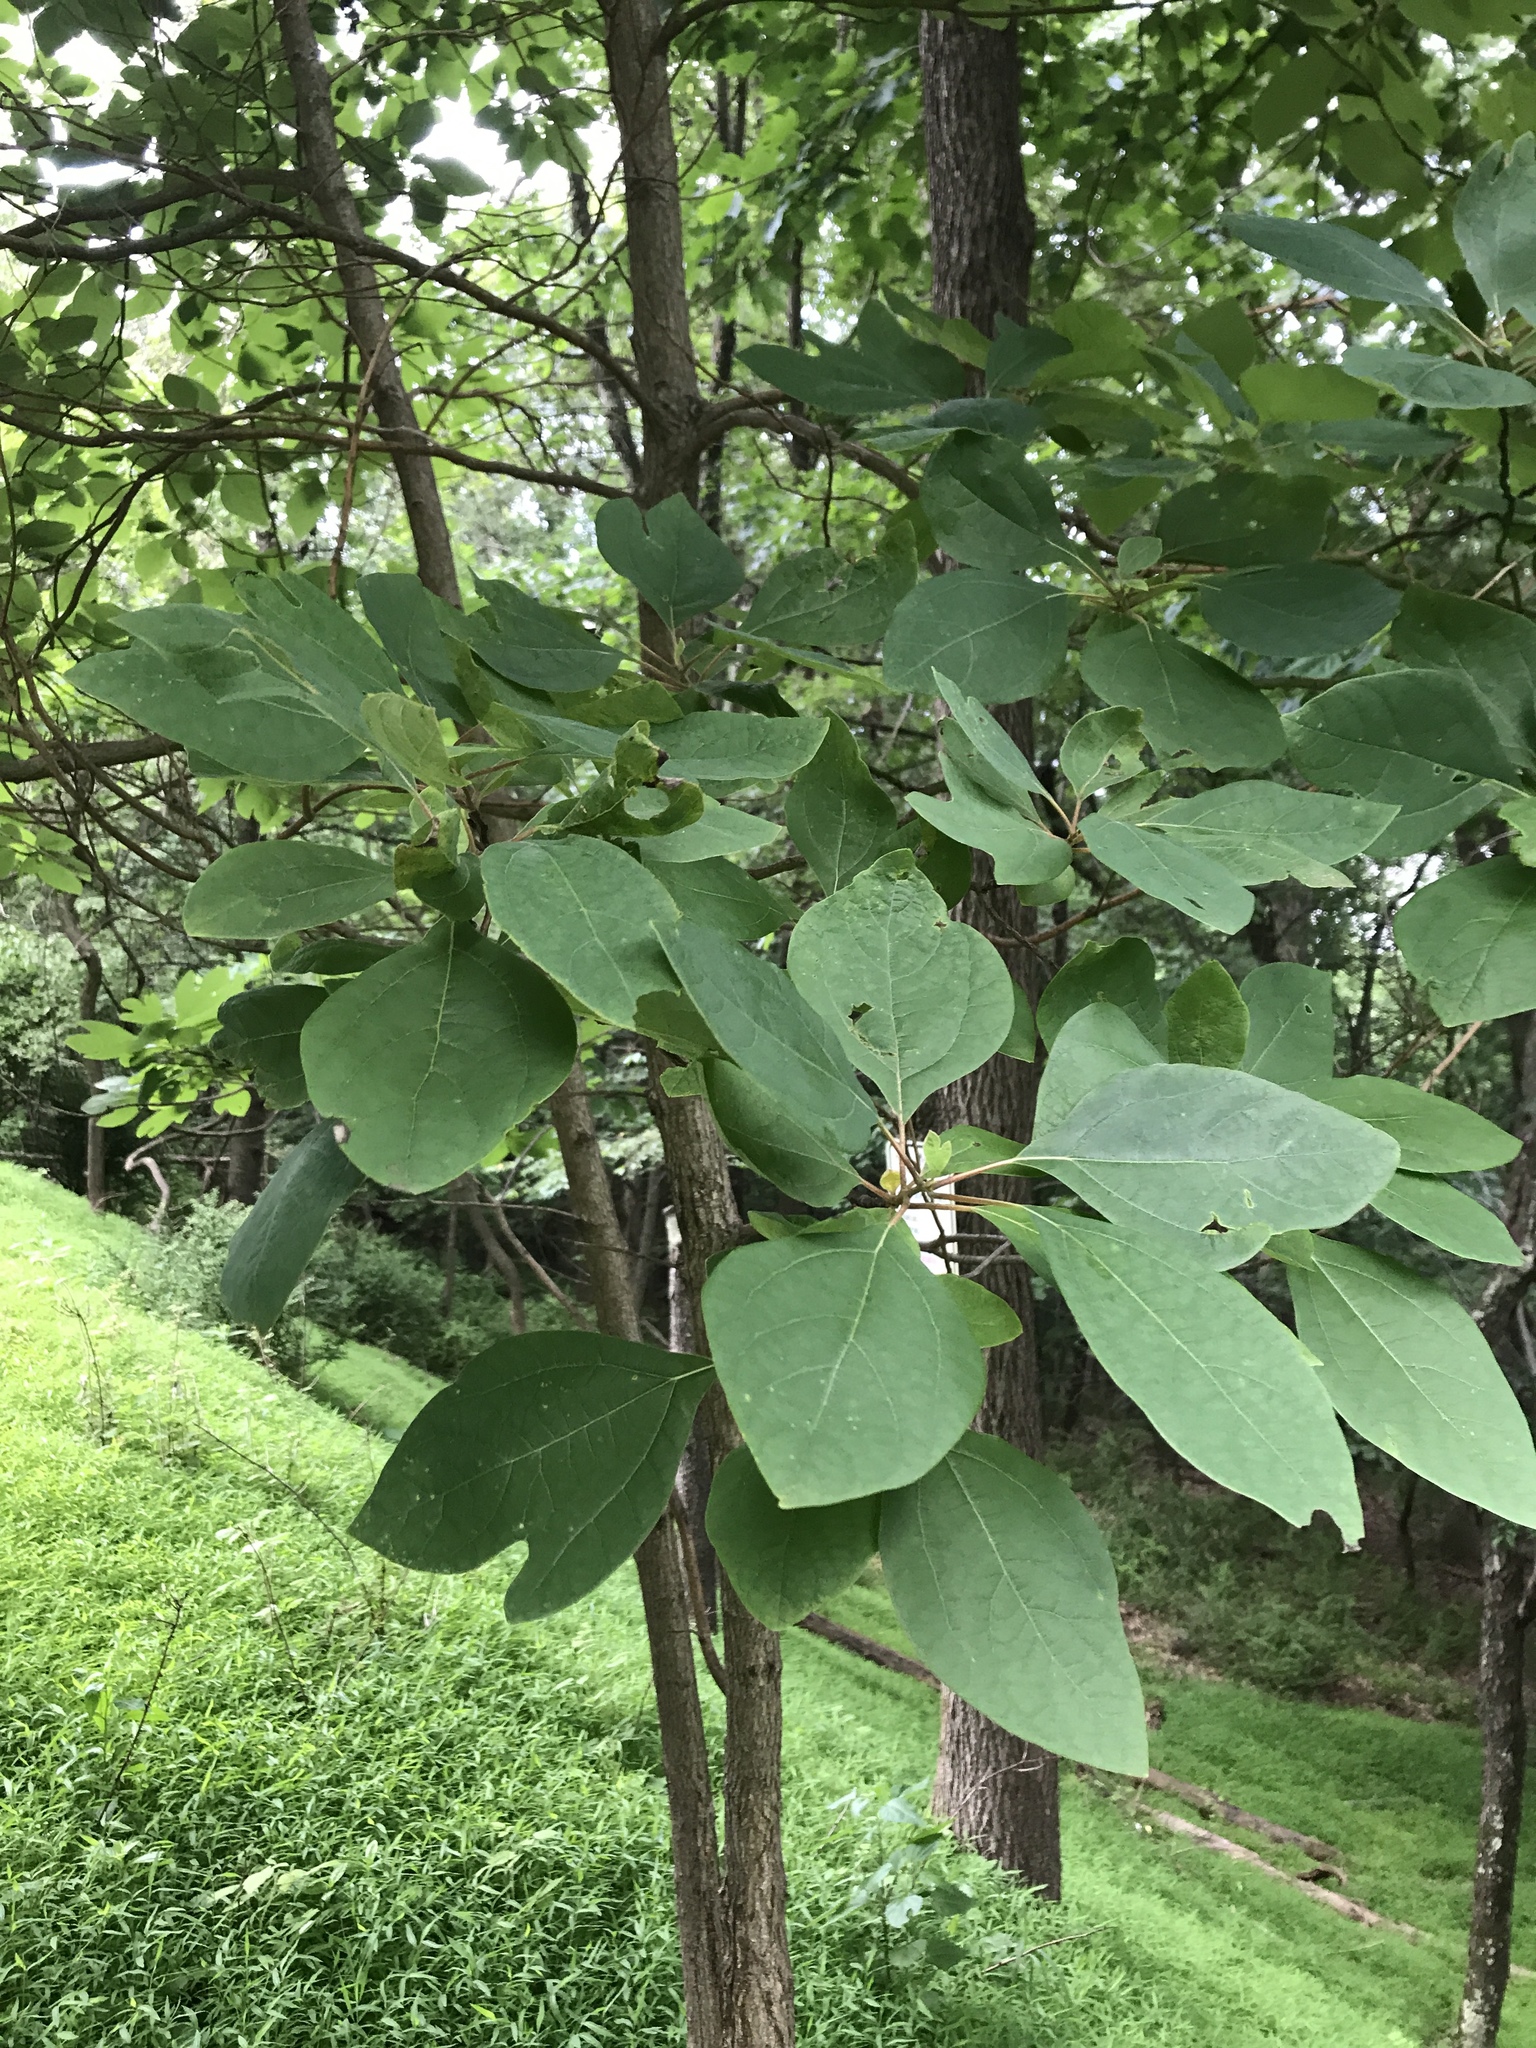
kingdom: Plantae
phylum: Tracheophyta
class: Magnoliopsida
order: Laurales
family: Lauraceae
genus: Sassafras
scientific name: Sassafras albidum
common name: Sassafras
